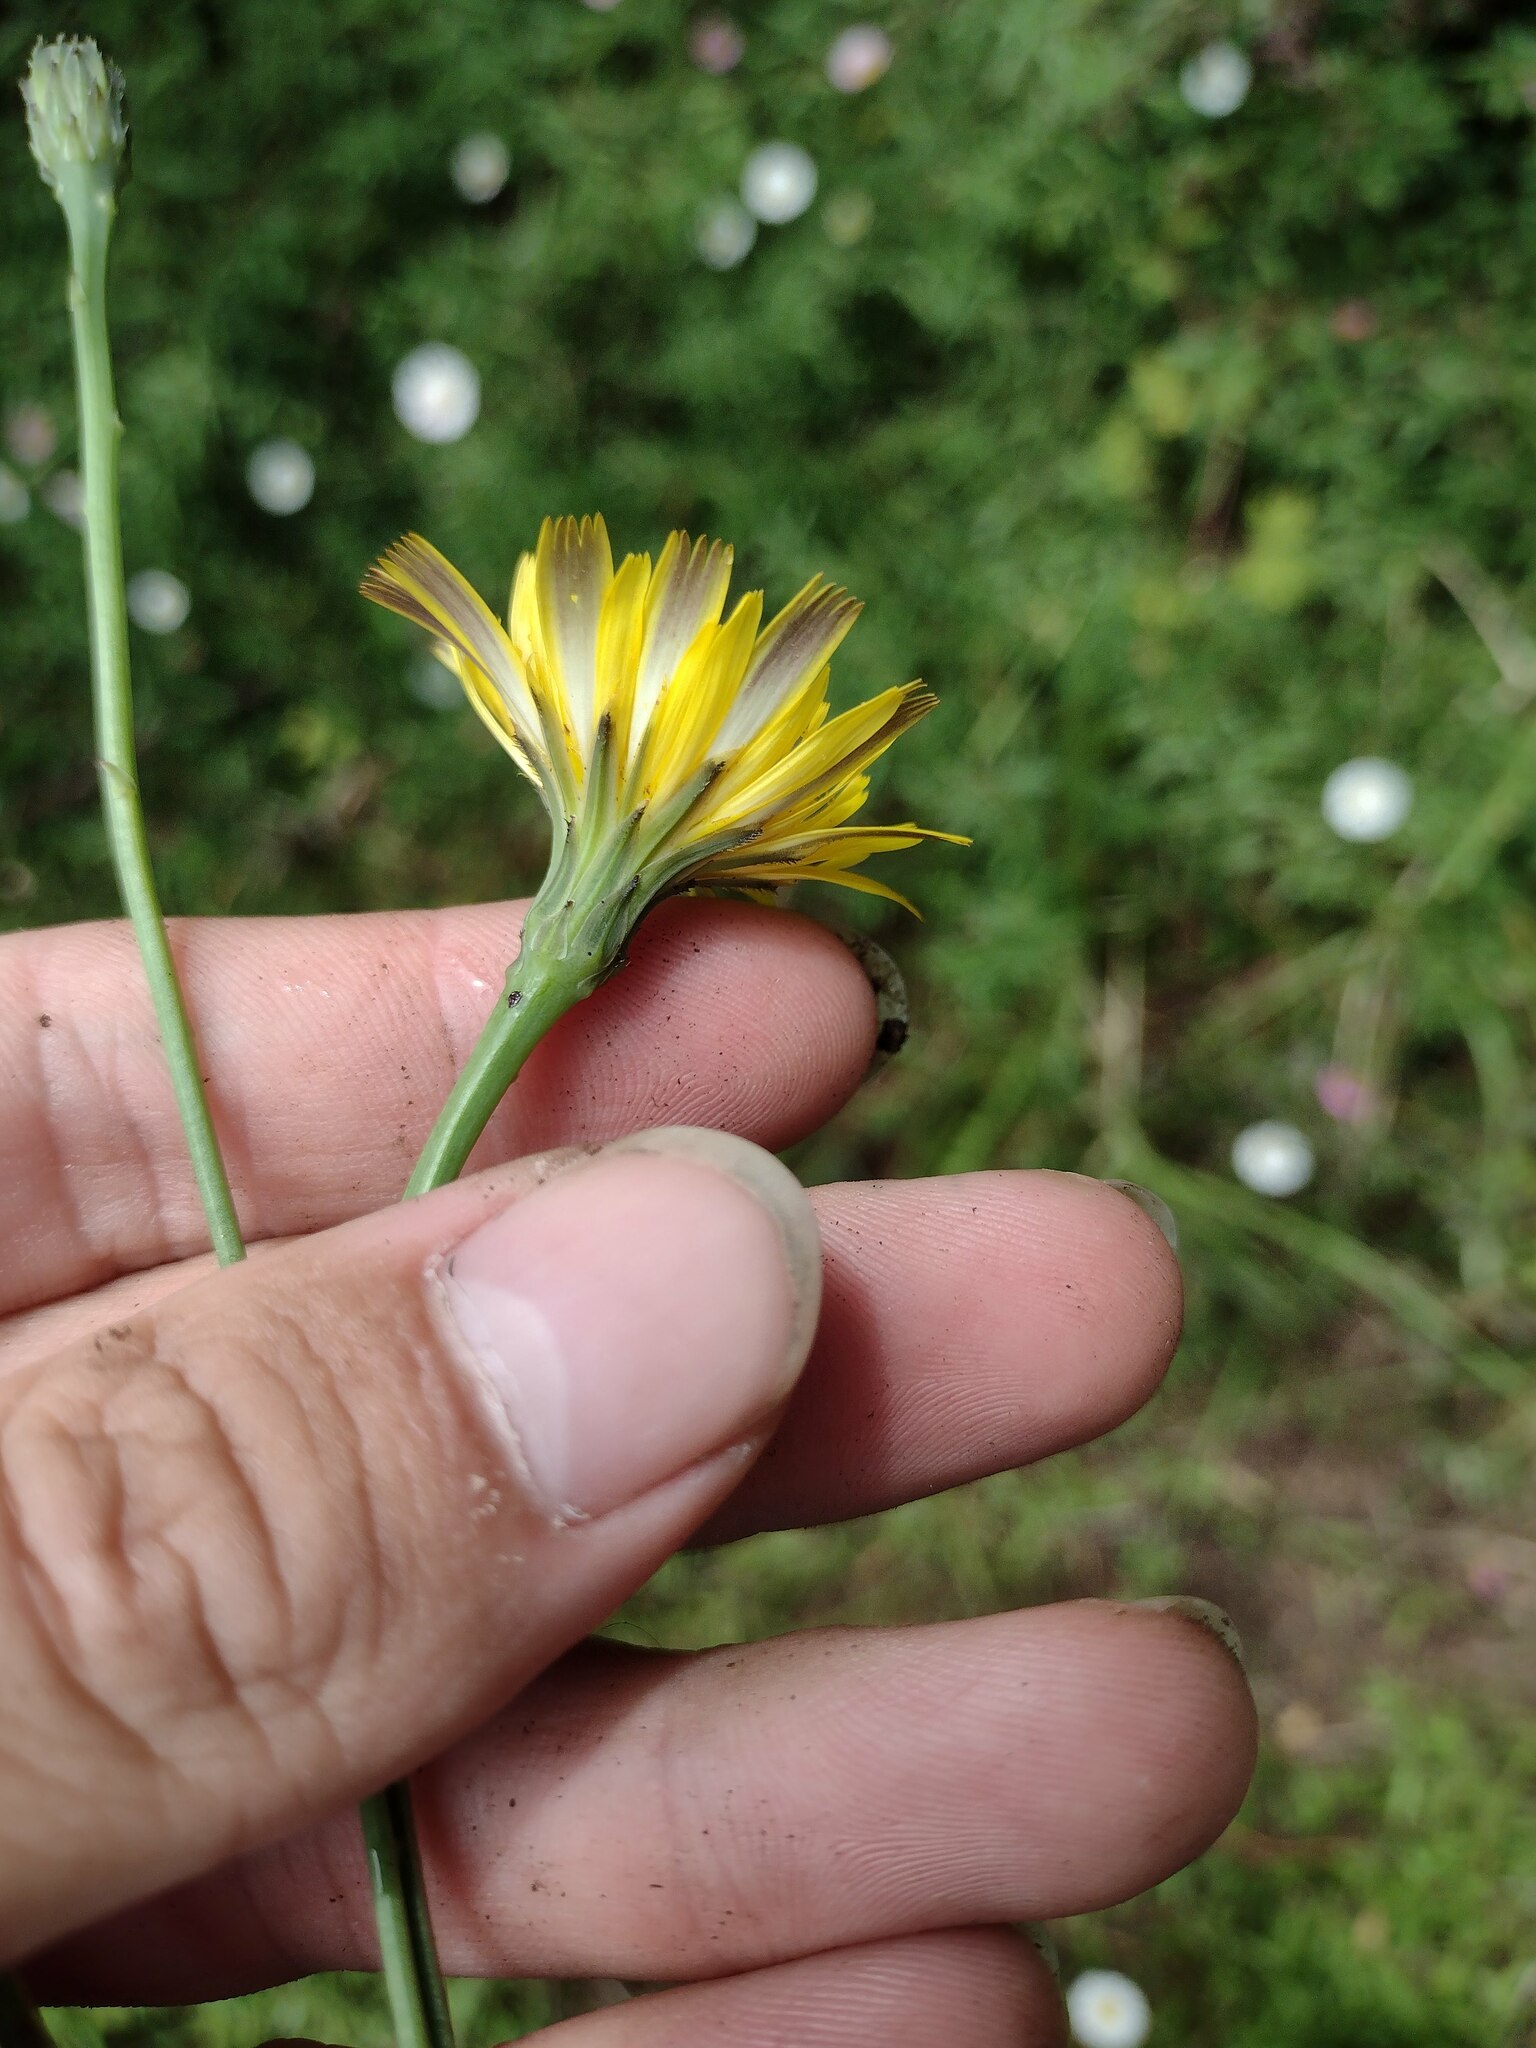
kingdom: Plantae
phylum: Tracheophyta
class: Magnoliopsida
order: Asterales
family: Asteraceae
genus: Hypochaeris
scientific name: Hypochaeris radicata
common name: Flatweed
